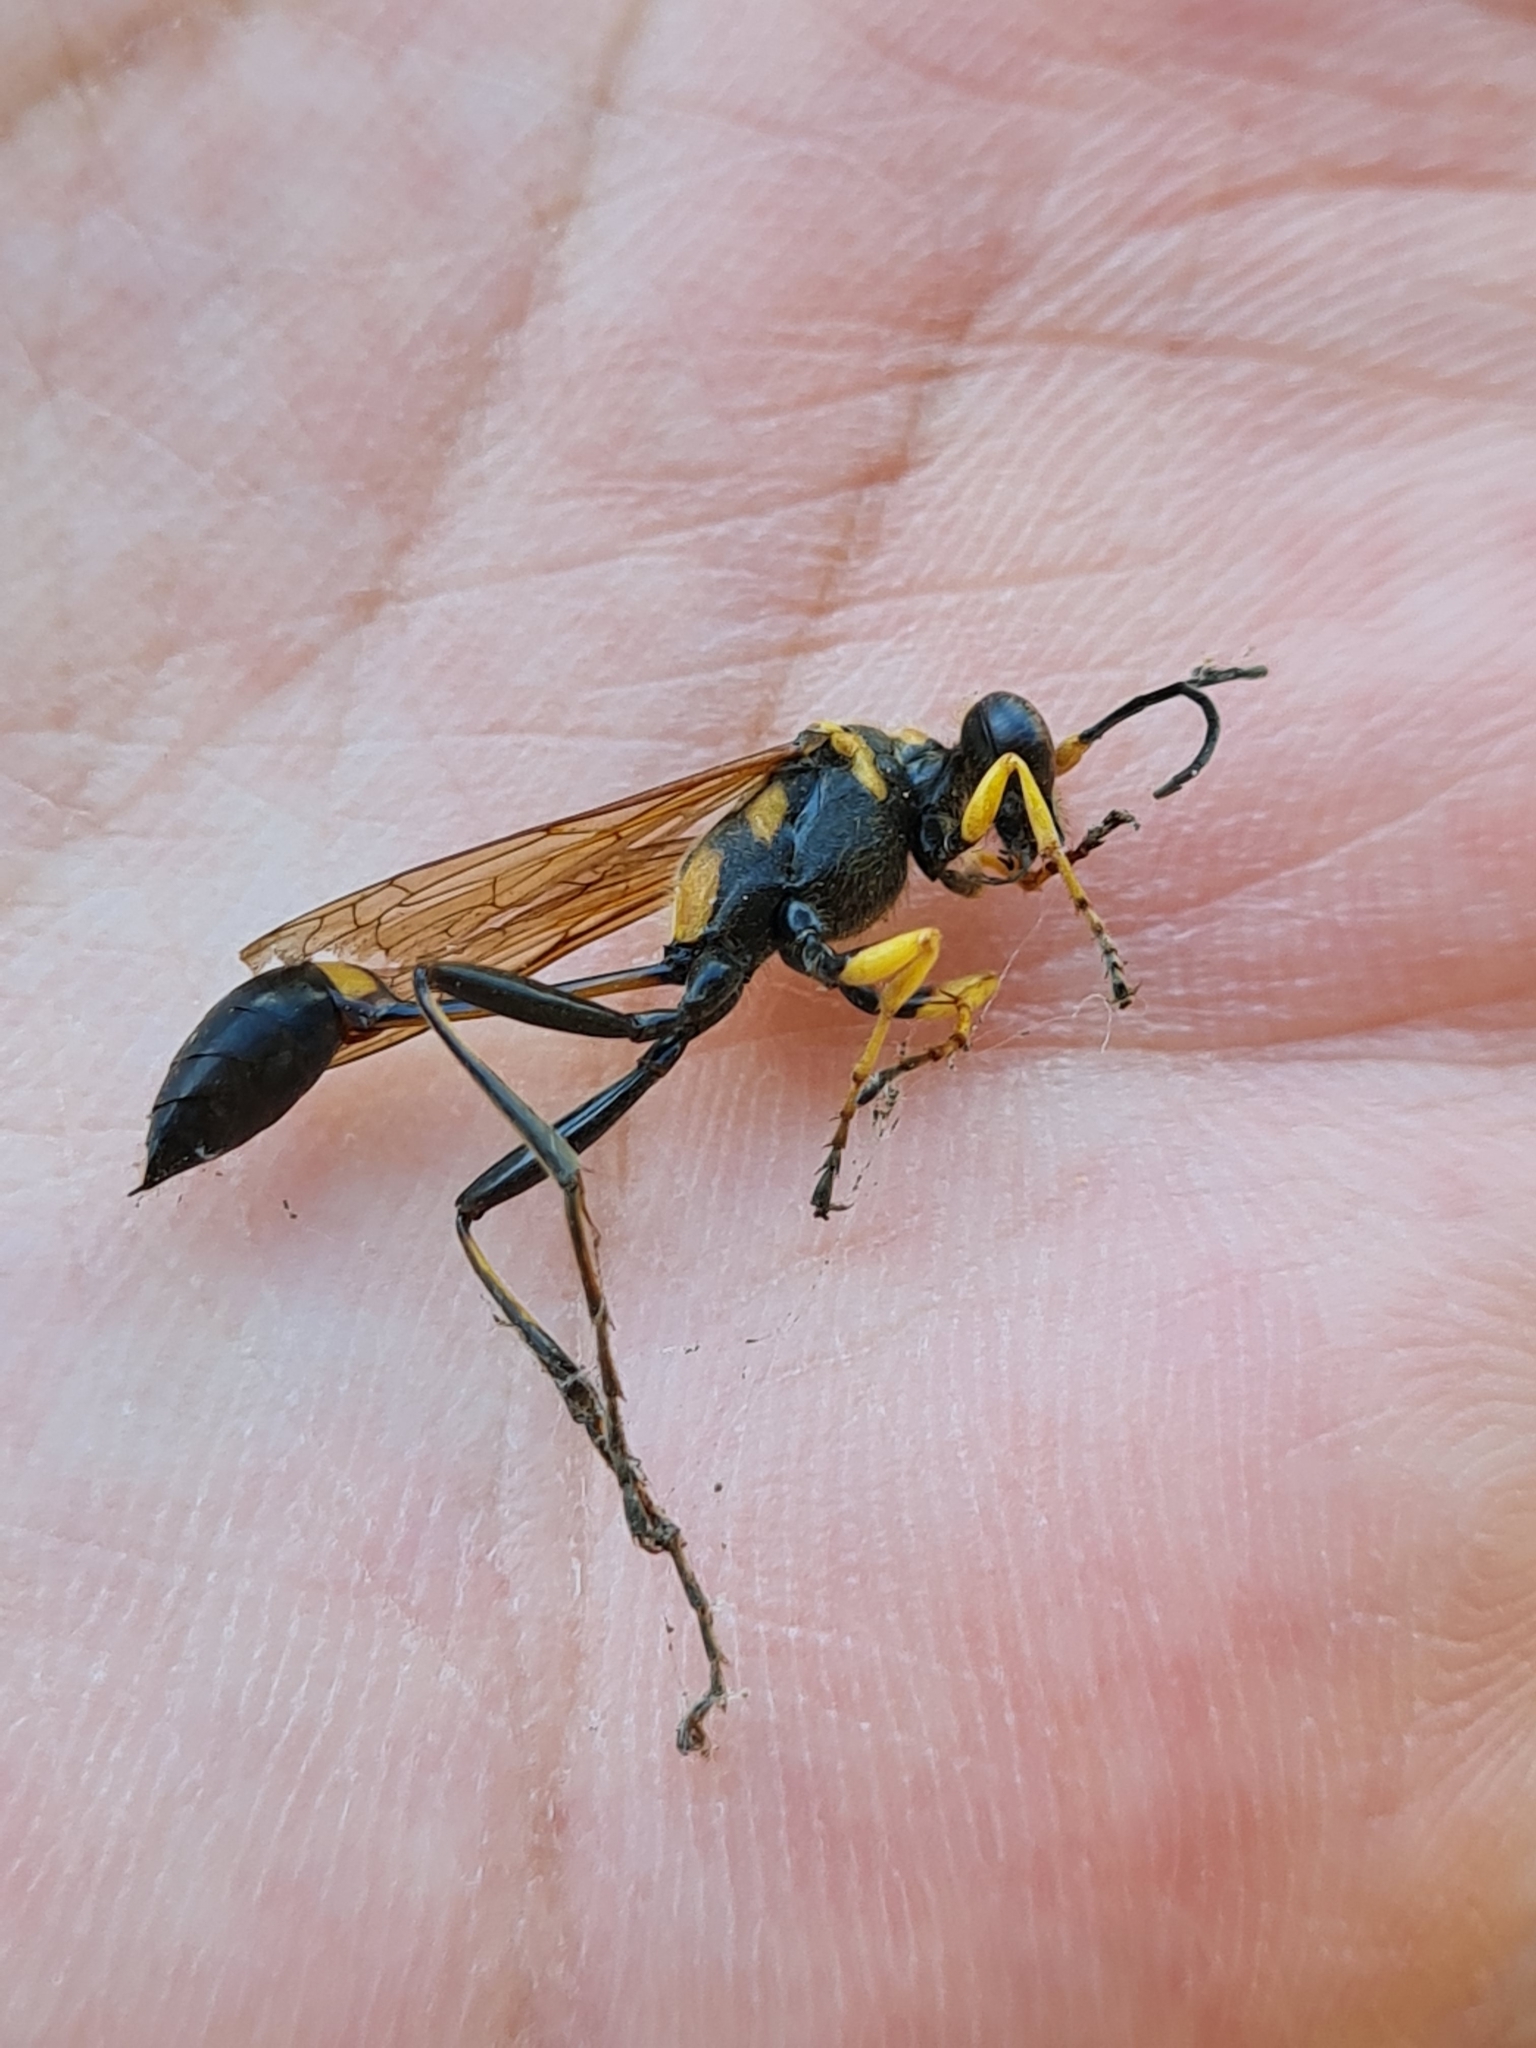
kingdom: Animalia
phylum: Arthropoda
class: Insecta
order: Hymenoptera
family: Sphecidae
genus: Sceliphron
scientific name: Sceliphron asiaticum
